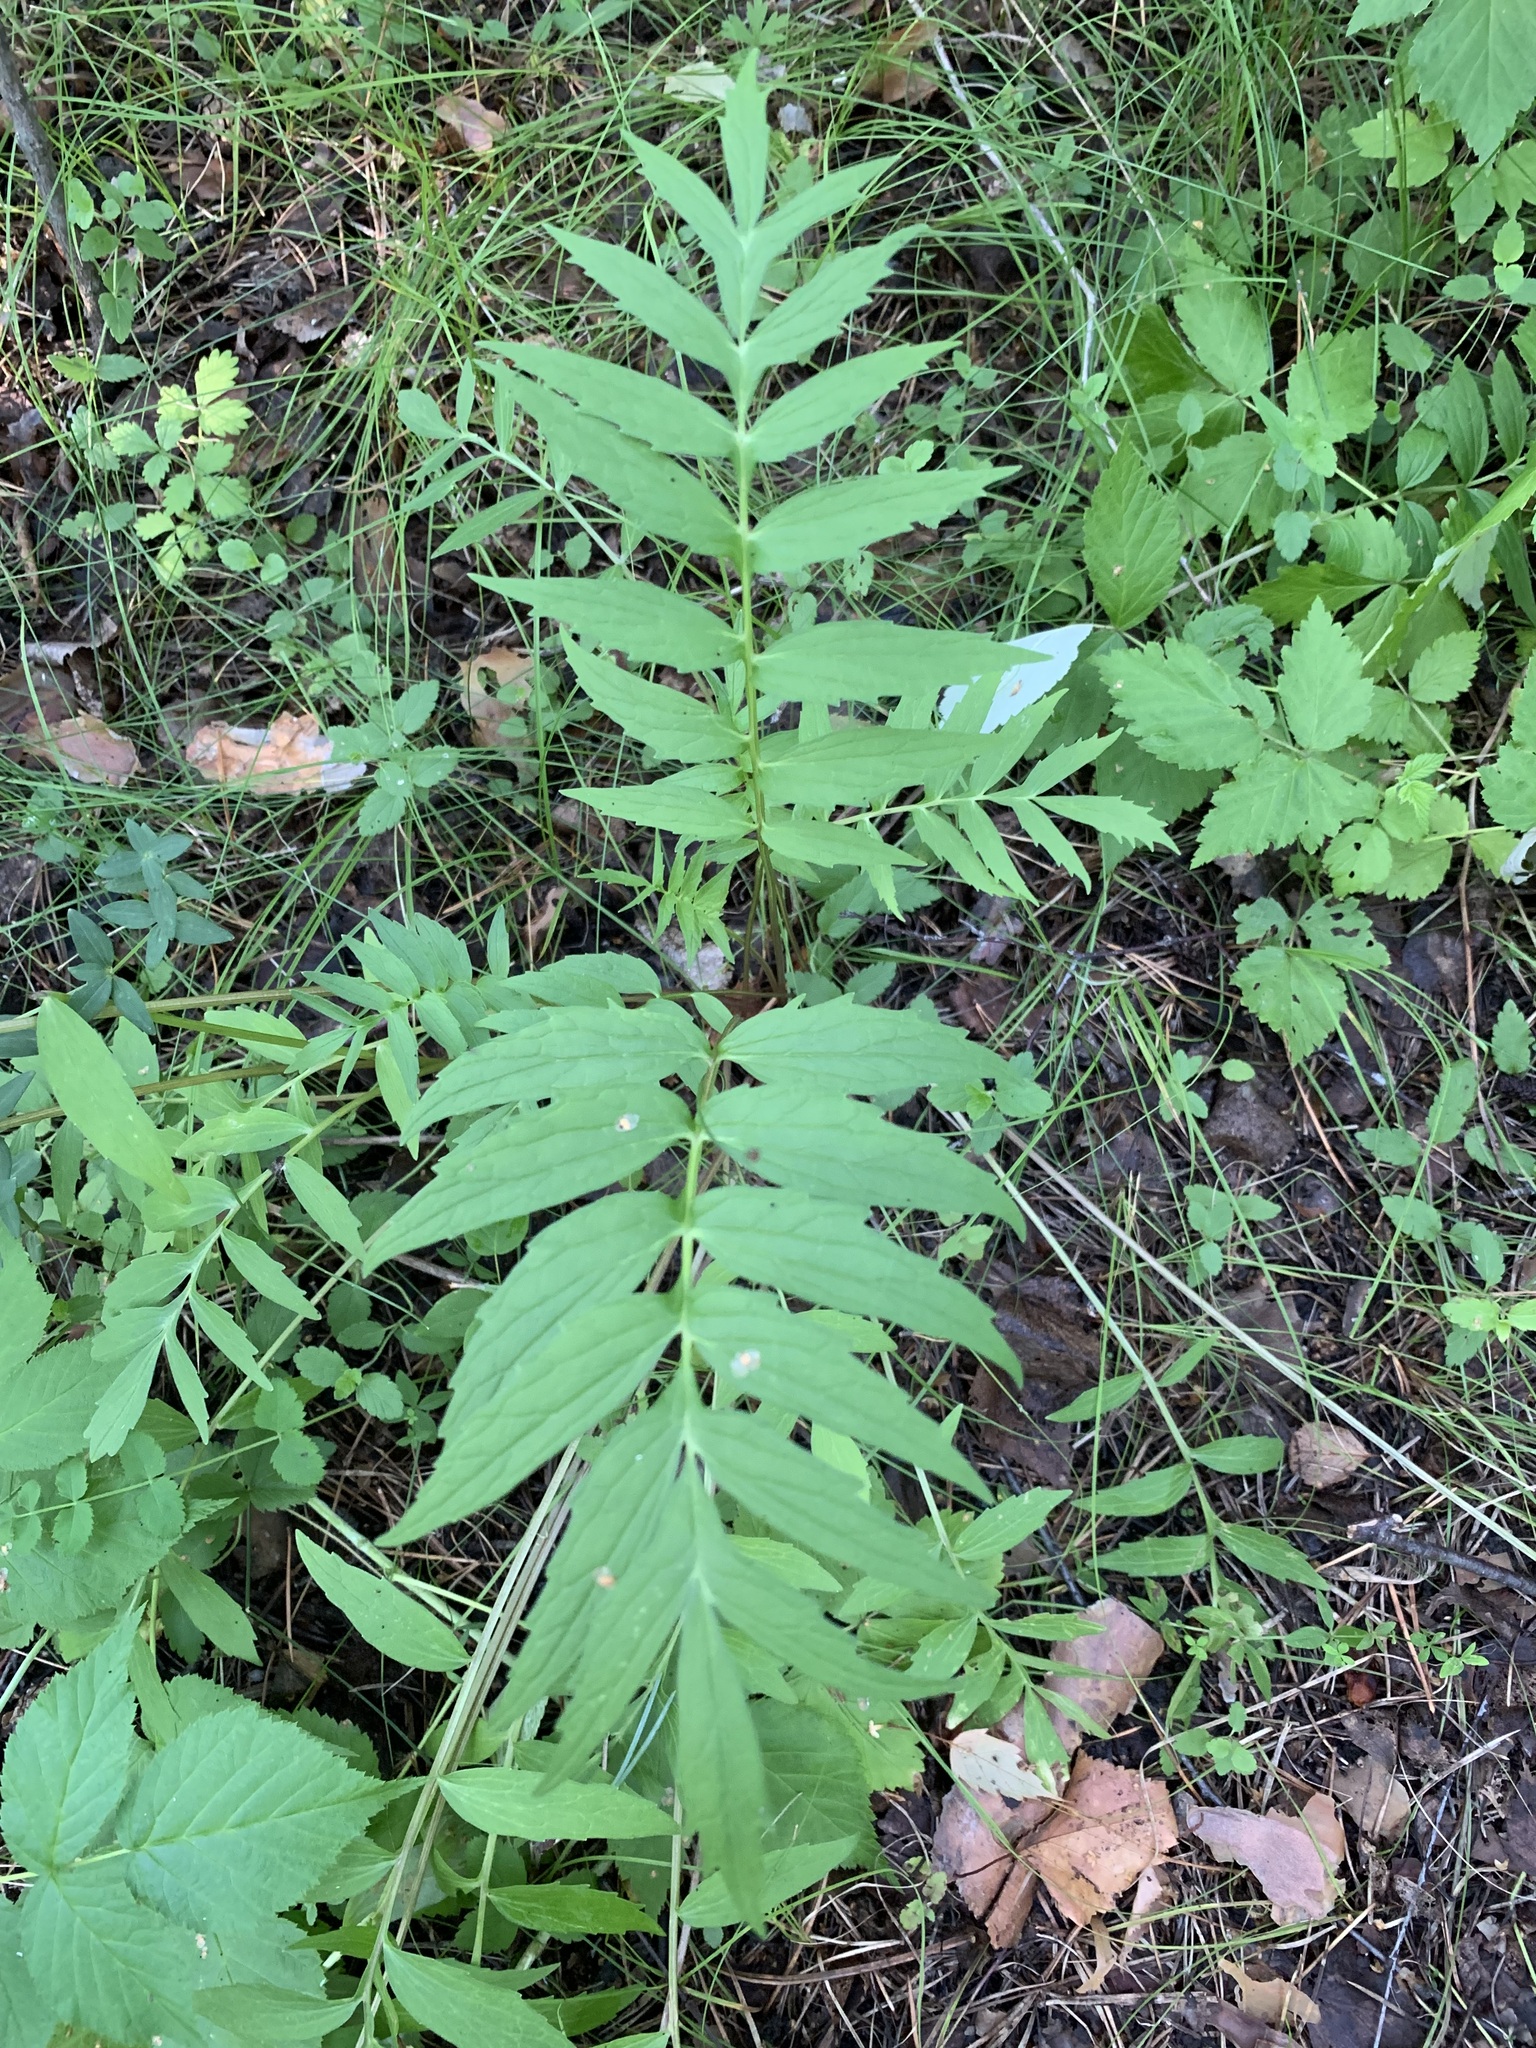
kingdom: Plantae
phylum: Tracheophyta
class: Magnoliopsida
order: Dipsacales
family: Caprifoliaceae
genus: Valeriana
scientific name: Valeriana wolgensis
